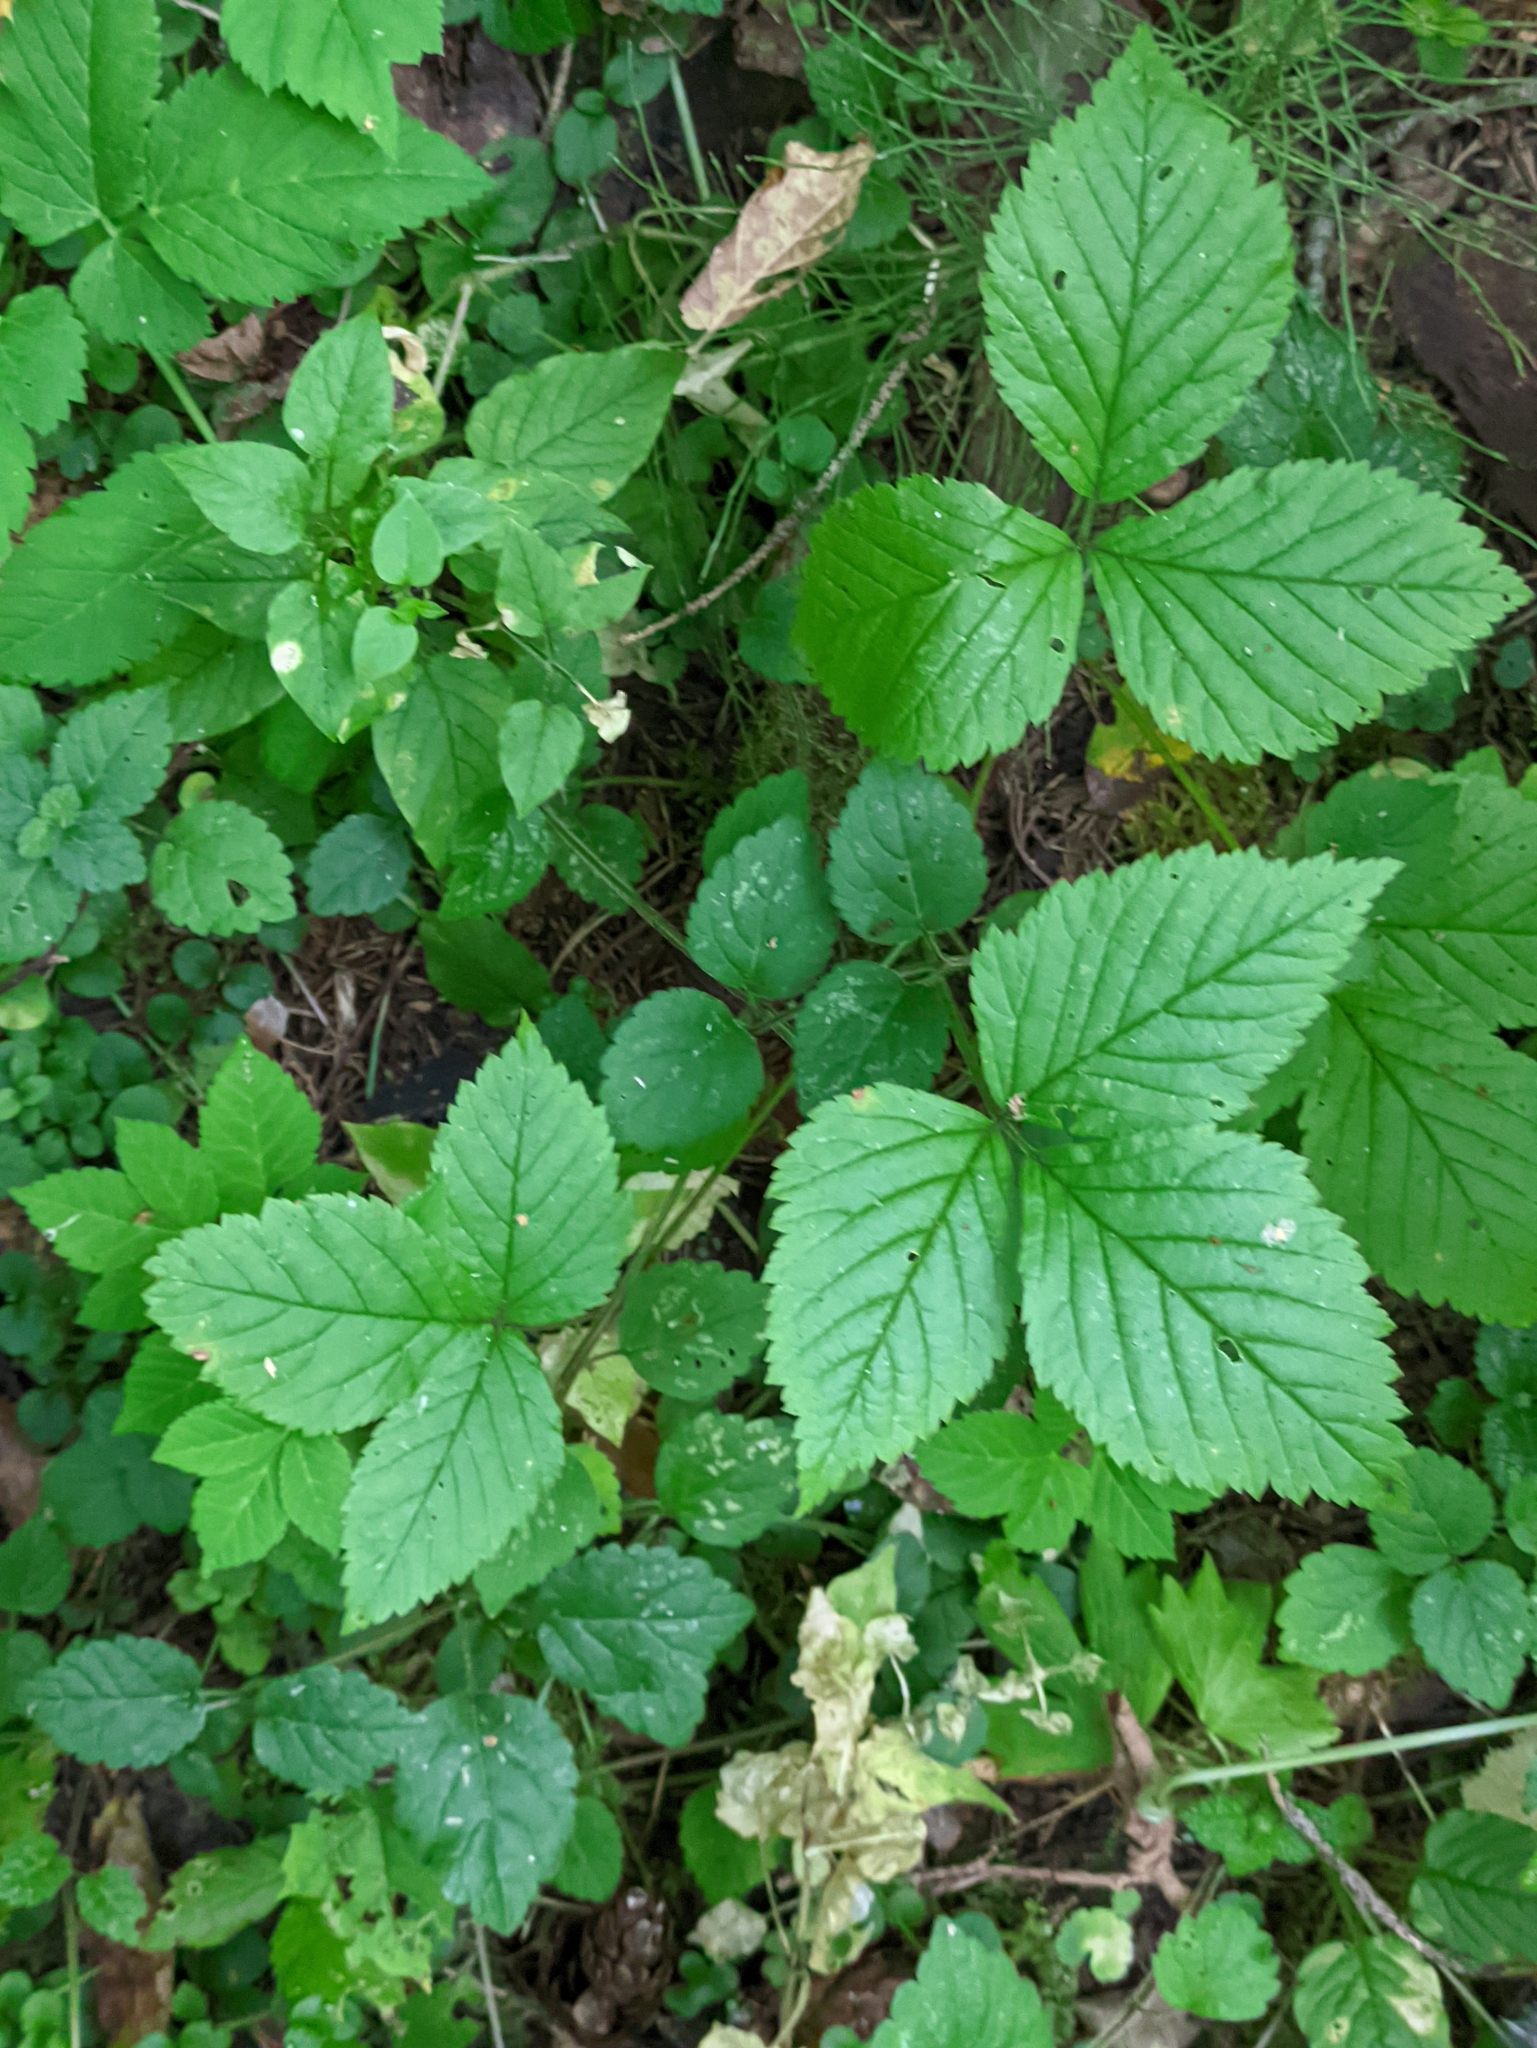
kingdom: Plantae
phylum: Tracheophyta
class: Magnoliopsida
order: Rosales
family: Rosaceae
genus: Rubus
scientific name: Rubus saxatilis
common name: Stone bramble
